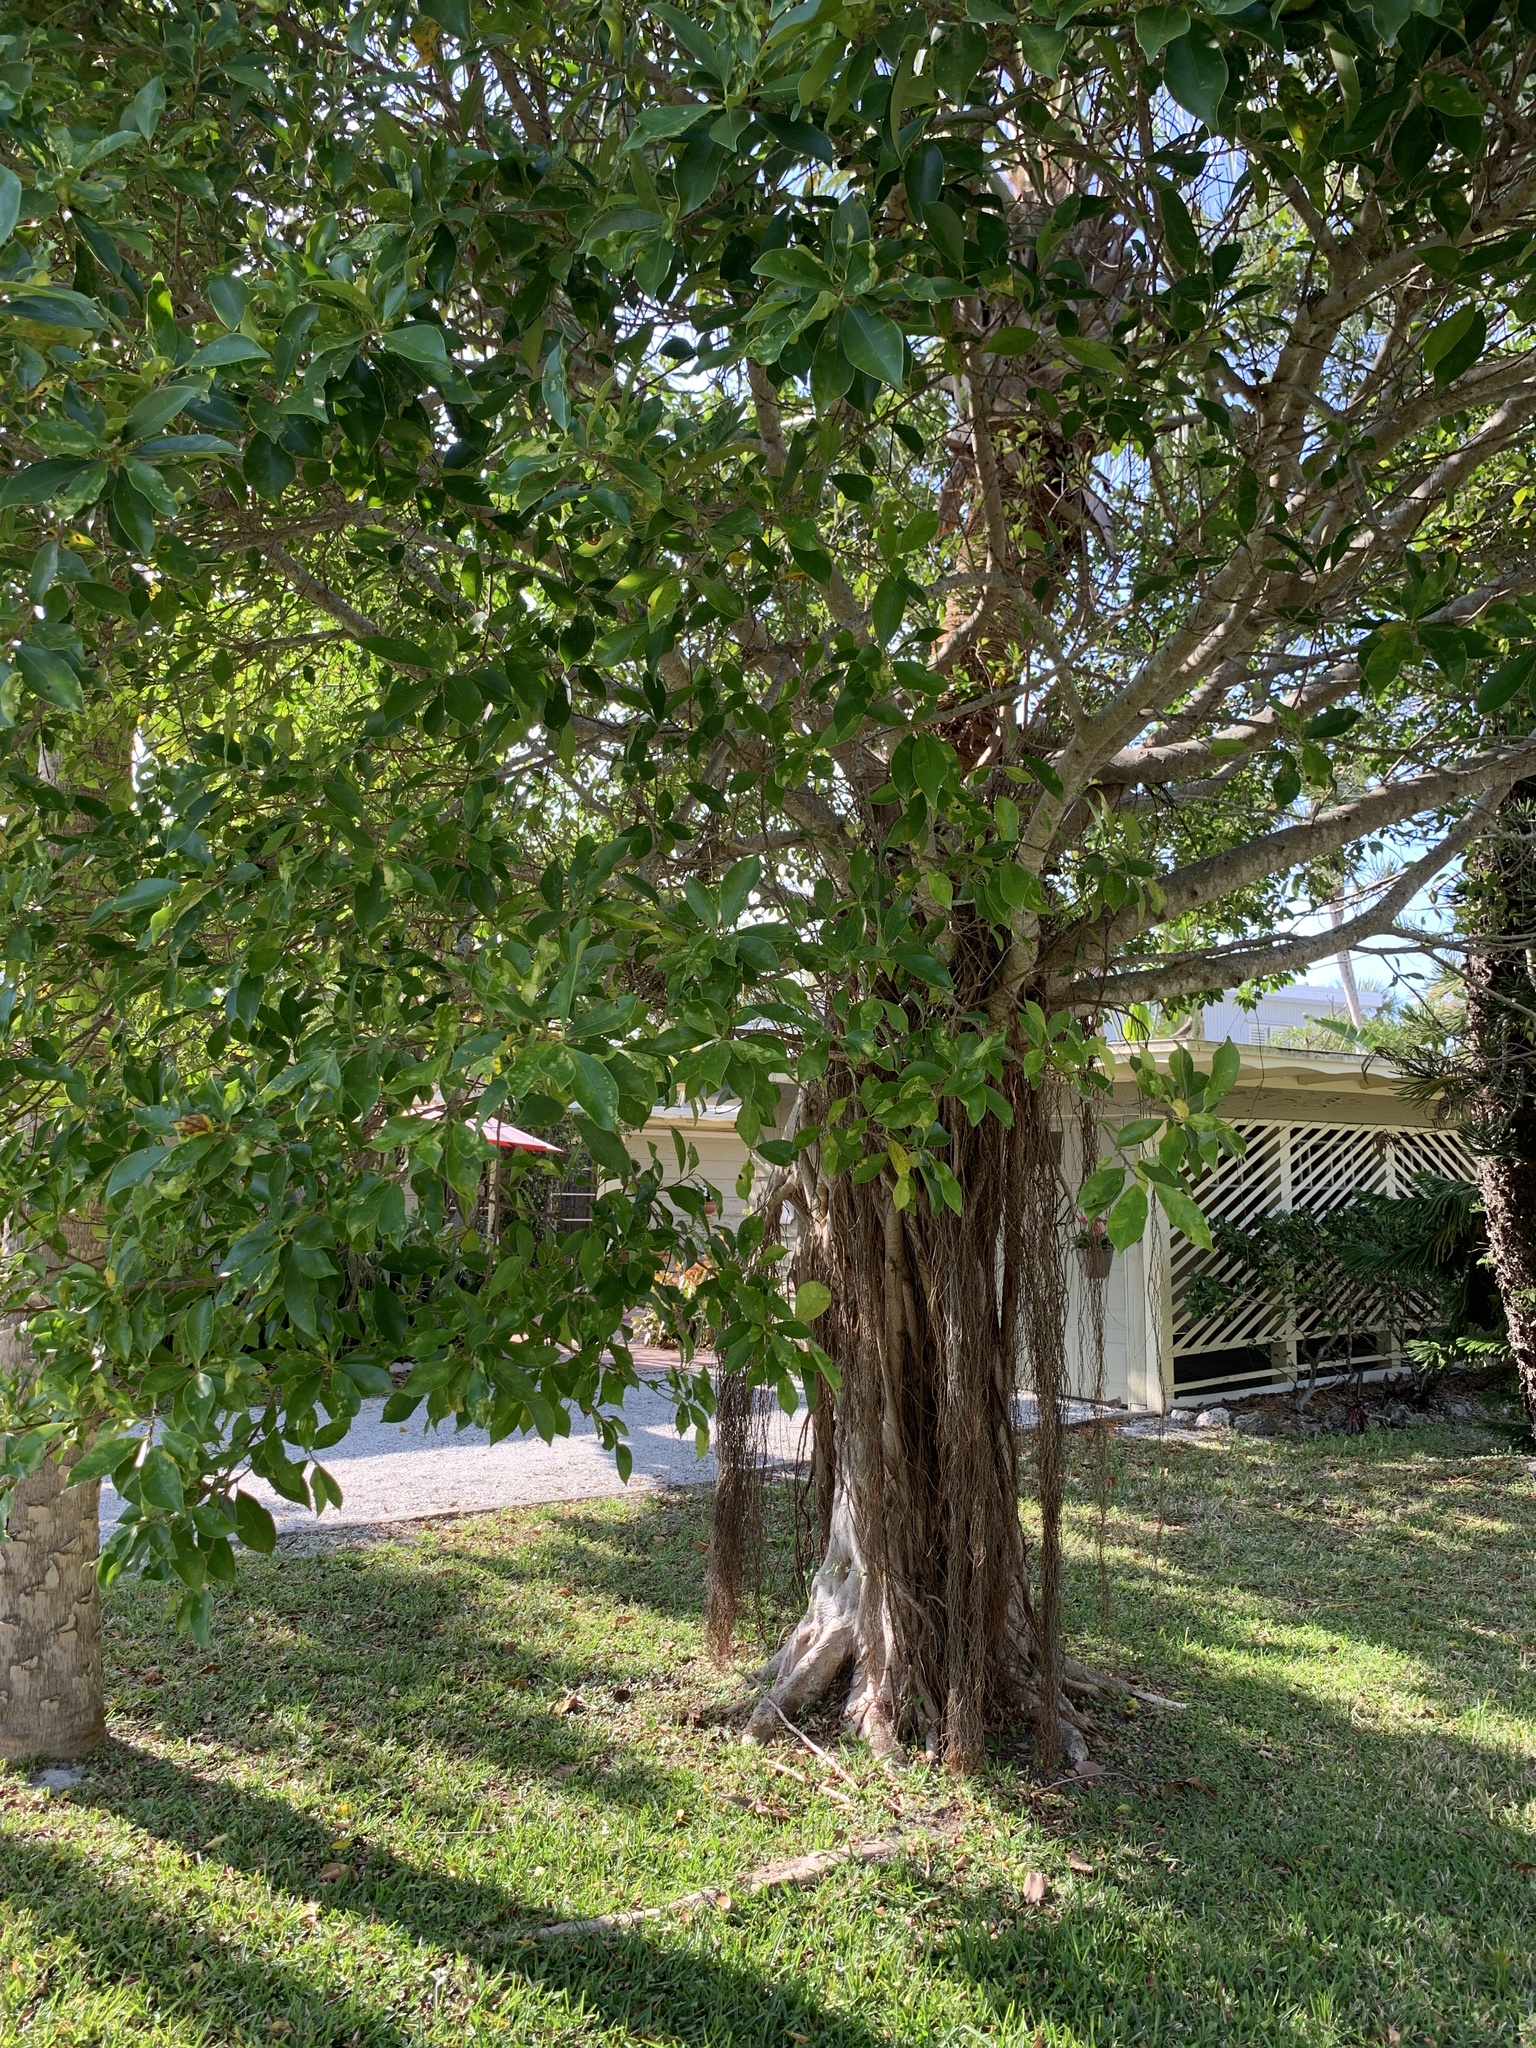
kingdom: Plantae
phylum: Tracheophyta
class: Magnoliopsida
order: Rosales
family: Moraceae
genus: Ficus
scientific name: Ficus microcarpa
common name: Chinese banyan
